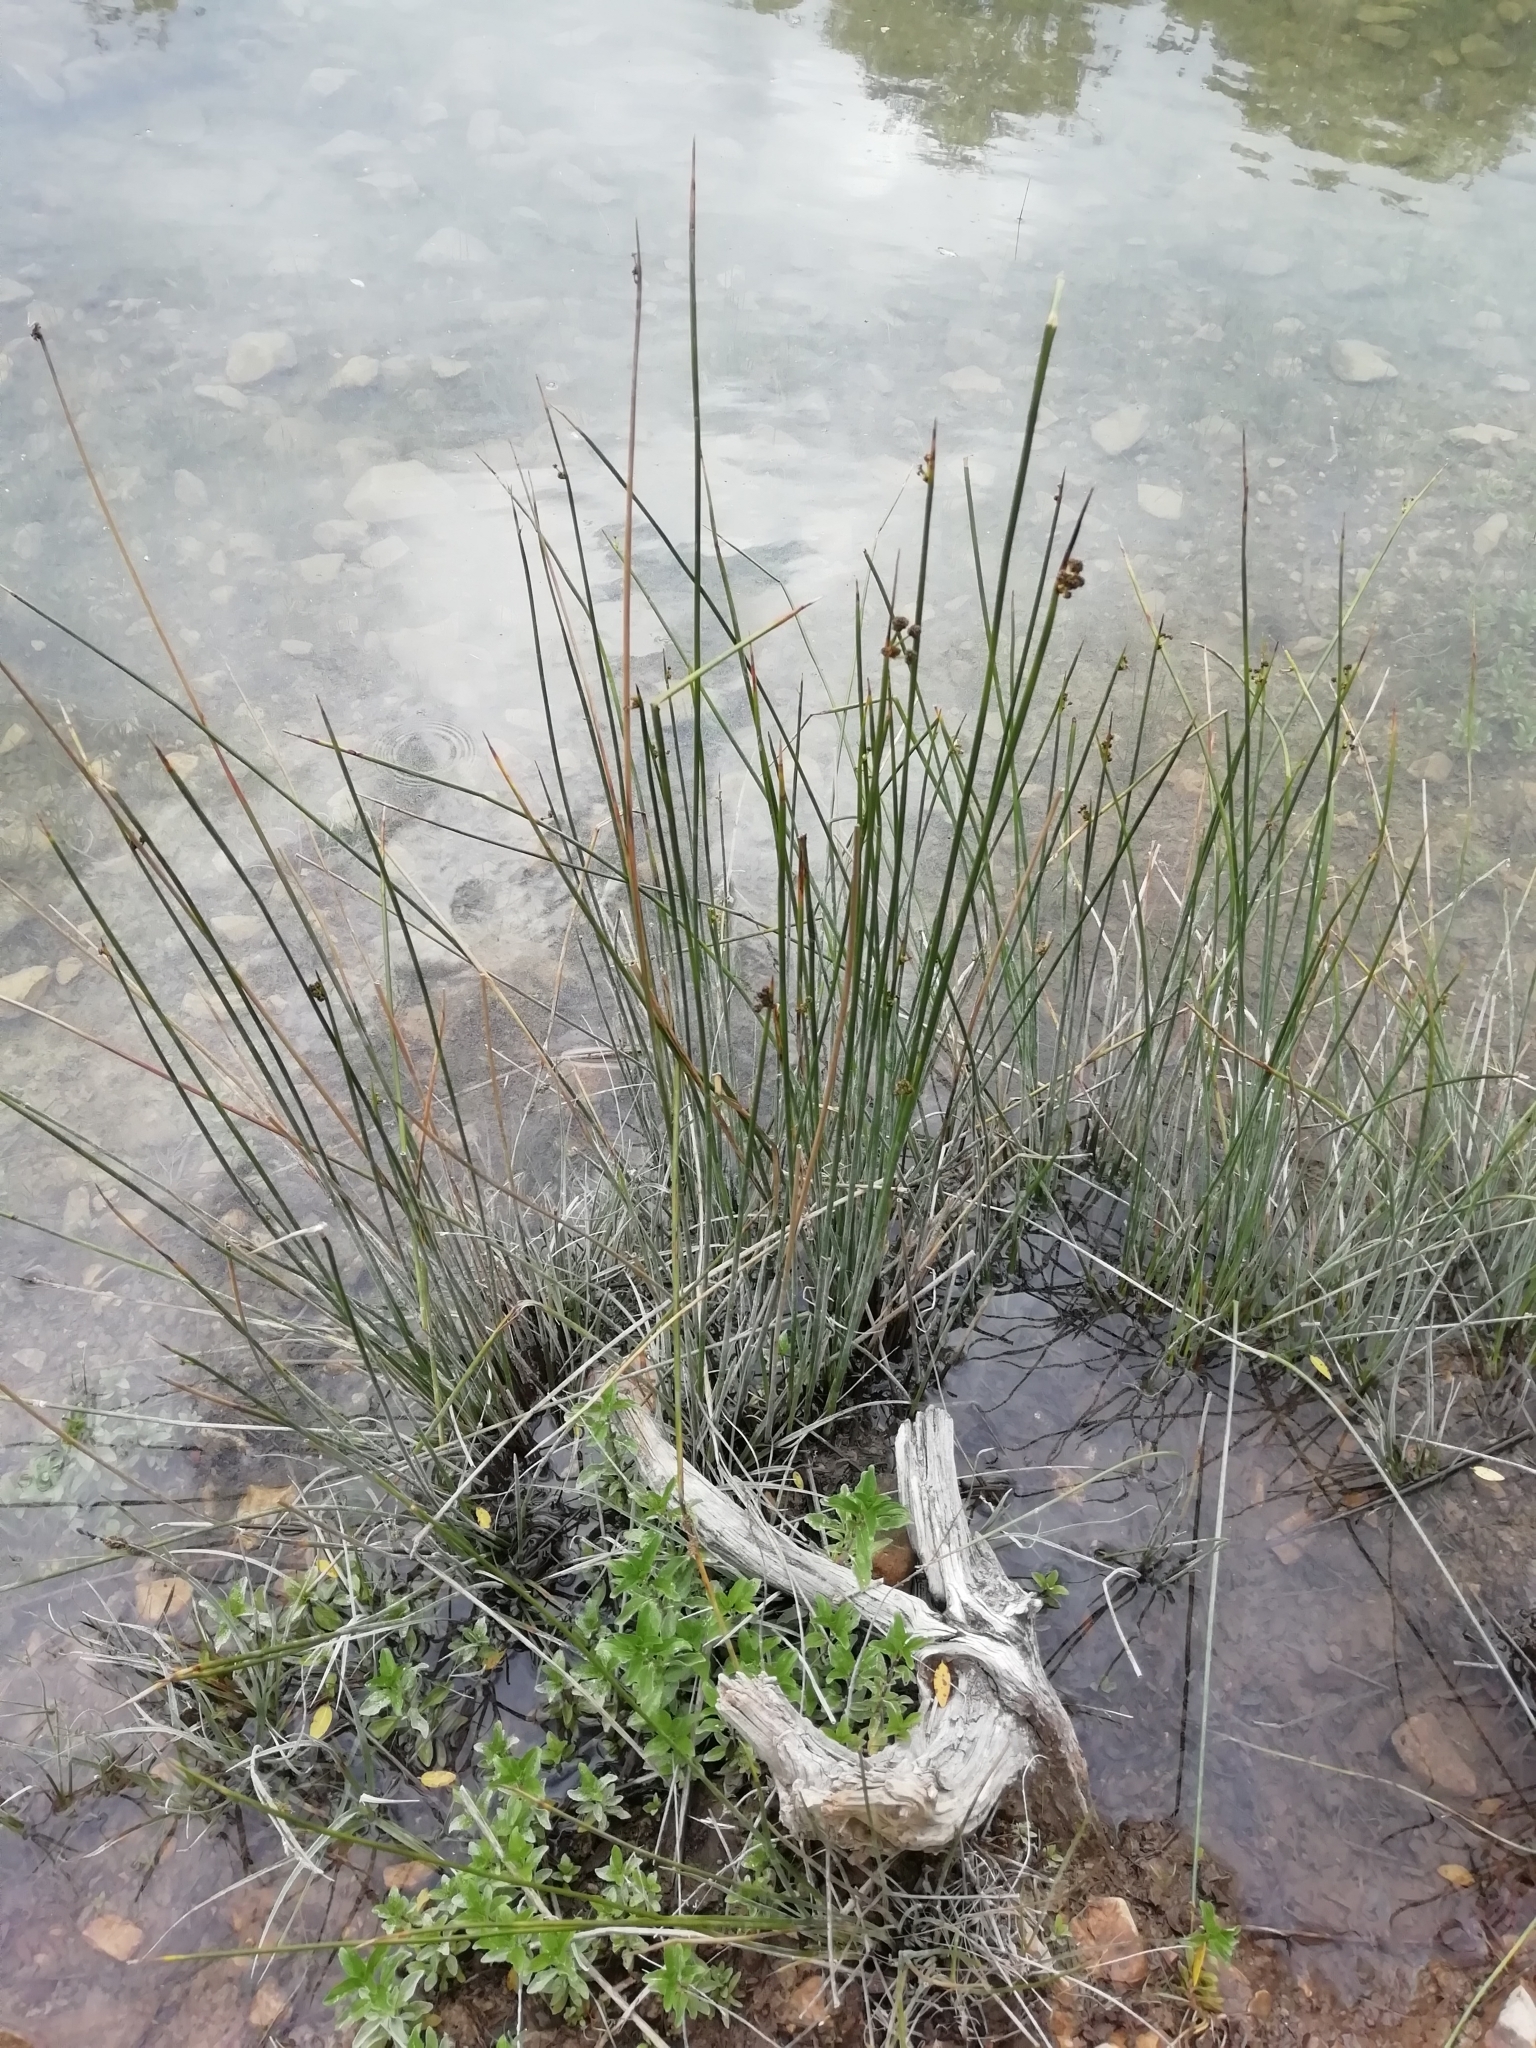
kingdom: Plantae
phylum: Tracheophyta
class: Liliopsida
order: Poales
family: Cyperaceae
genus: Scirpoides
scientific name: Scirpoides holoschoenus
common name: Round-headed club-rush
